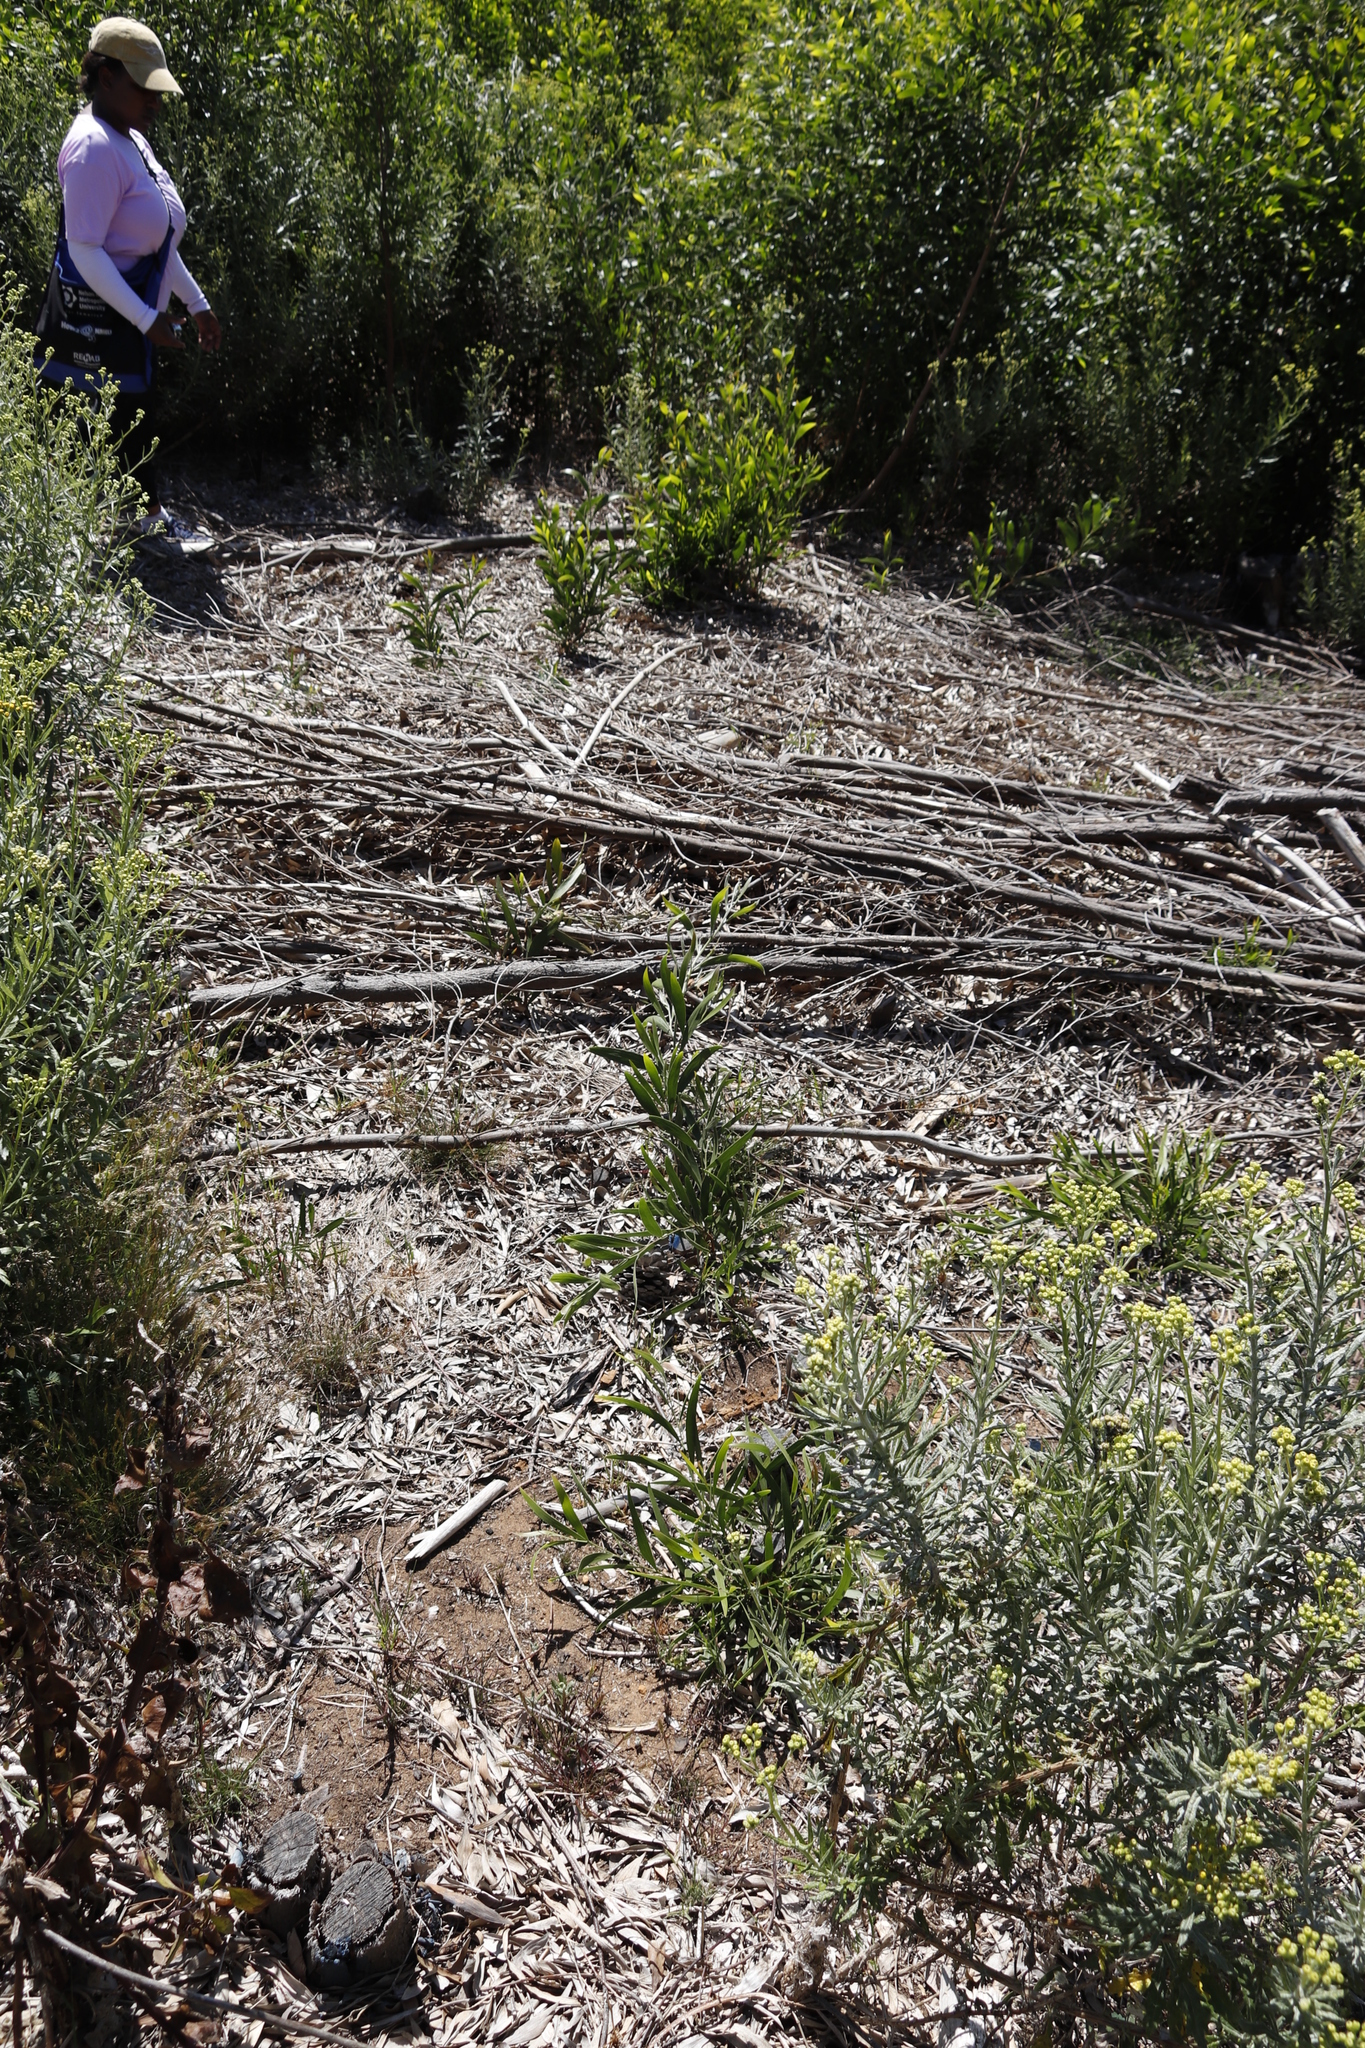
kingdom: Plantae
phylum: Tracheophyta
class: Magnoliopsida
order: Fabales
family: Fabaceae
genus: Acacia
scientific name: Acacia mearnsii
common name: Black wattle
